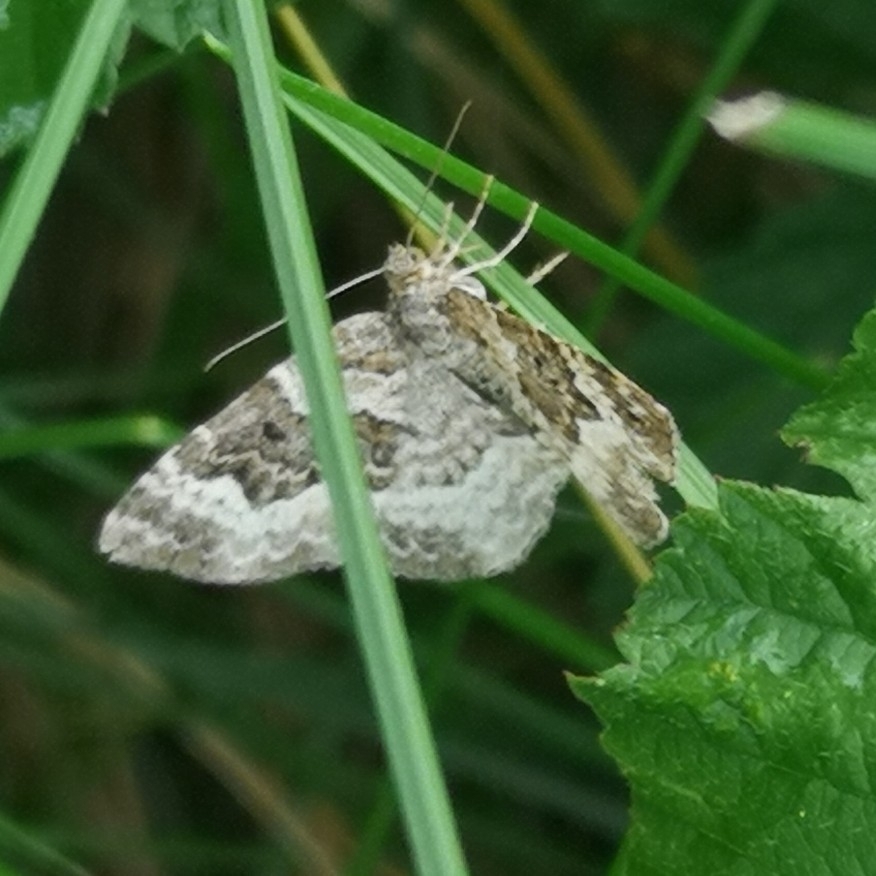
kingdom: Animalia
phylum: Arthropoda
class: Insecta
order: Lepidoptera
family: Geometridae
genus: Epirrhoe
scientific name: Epirrhoe alternata
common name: Common carpet
